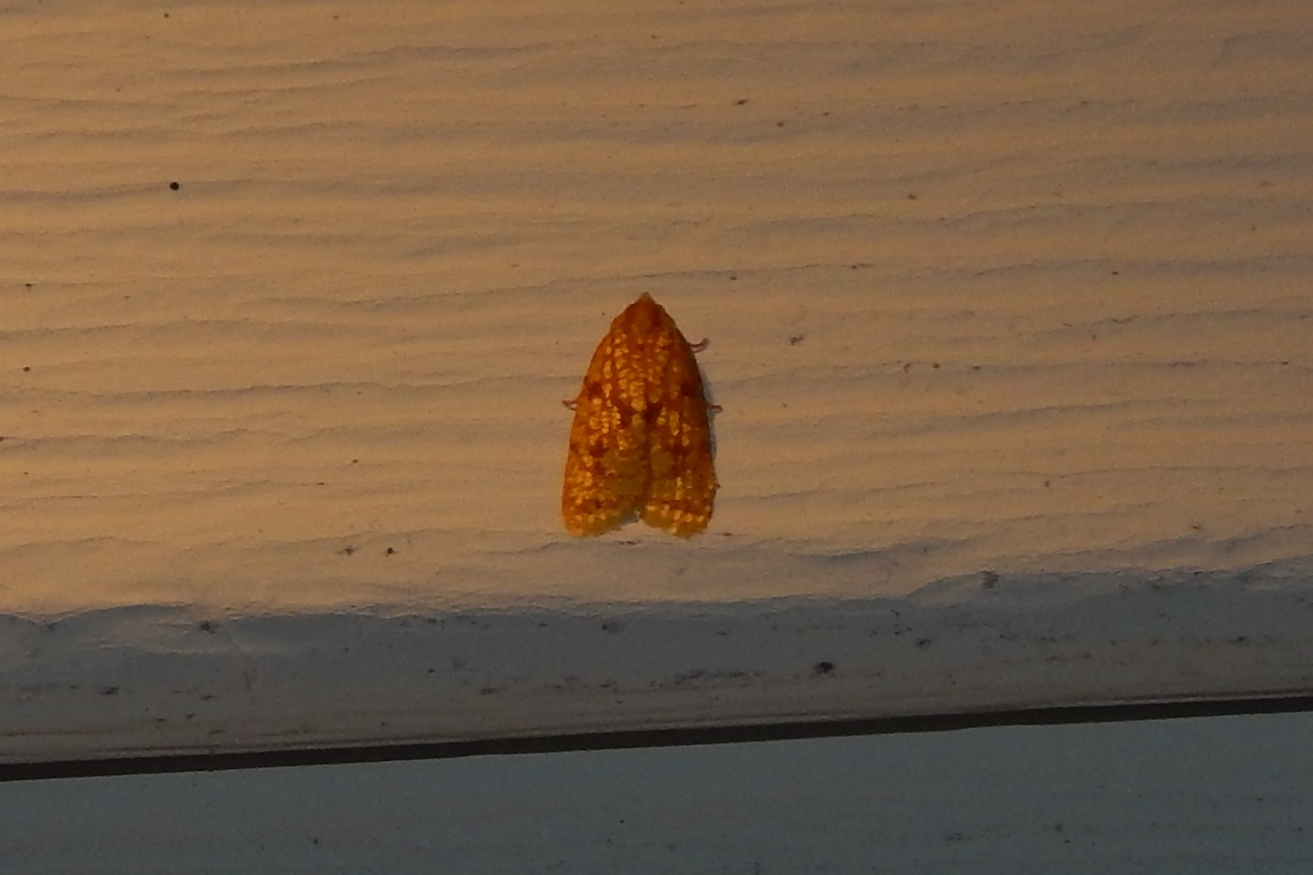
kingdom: Animalia
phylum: Arthropoda
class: Insecta
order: Lepidoptera
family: Tortricidae
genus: Sparganothis
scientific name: Sparganothis sulfureana
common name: Sparganothis fruitworm moth
